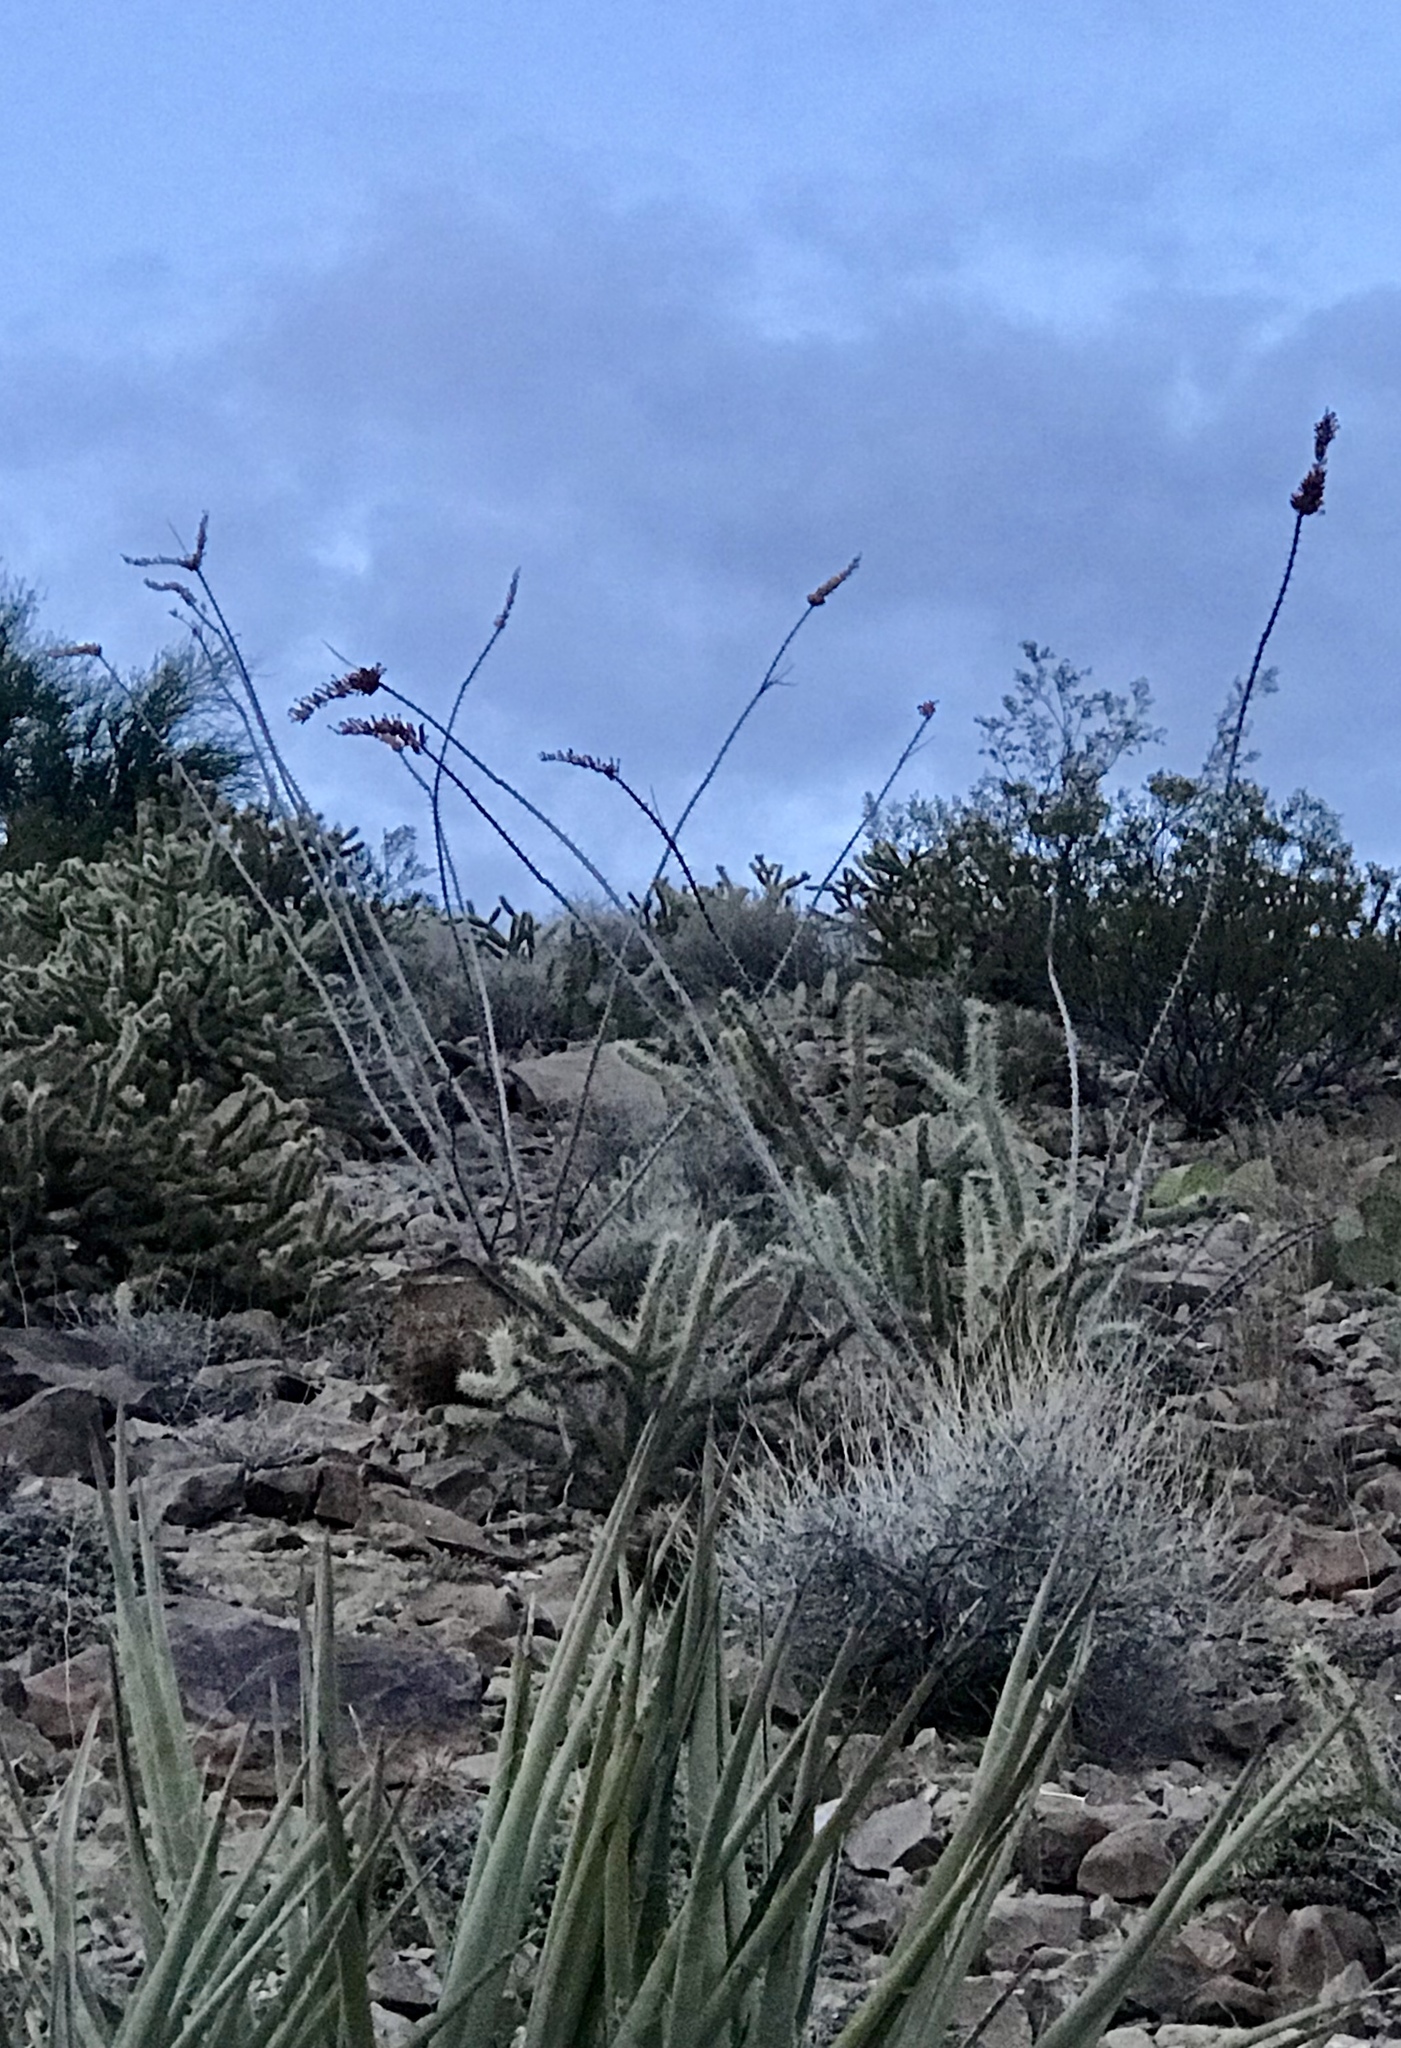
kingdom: Plantae
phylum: Tracheophyta
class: Magnoliopsida
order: Ericales
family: Fouquieriaceae
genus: Fouquieria
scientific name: Fouquieria splendens
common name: Vine-cactus
